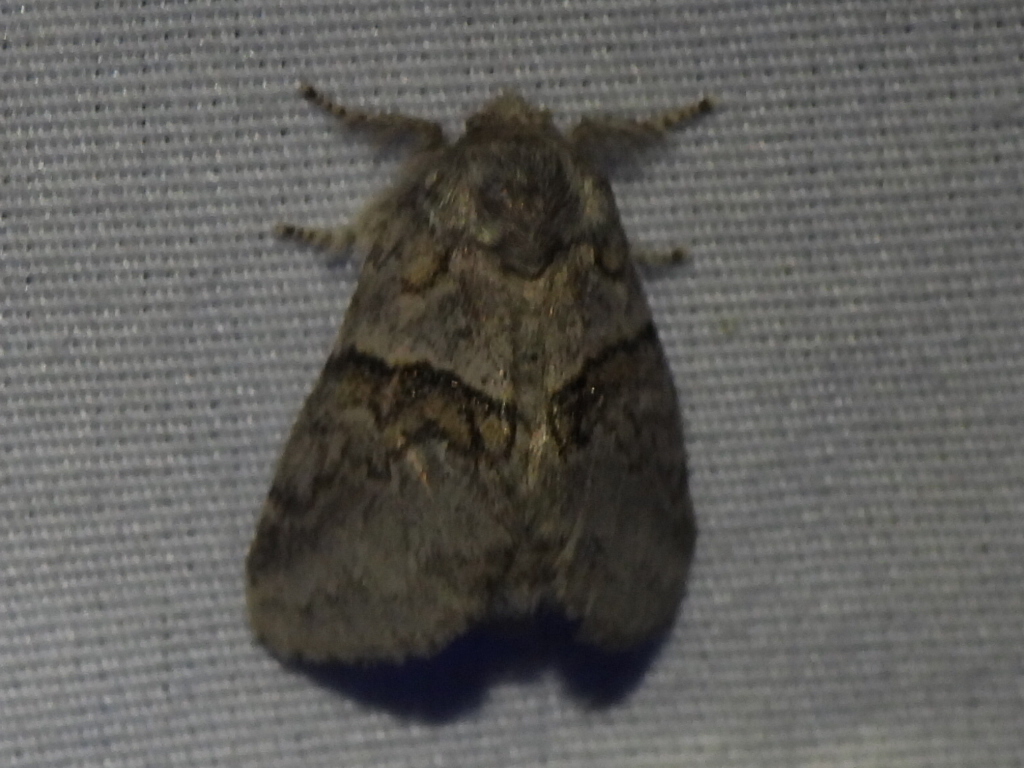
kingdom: Animalia
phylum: Arthropoda
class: Insecta
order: Lepidoptera
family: Notodontidae
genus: Gluphisia
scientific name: Gluphisia septentrionis
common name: Common gluphisia
